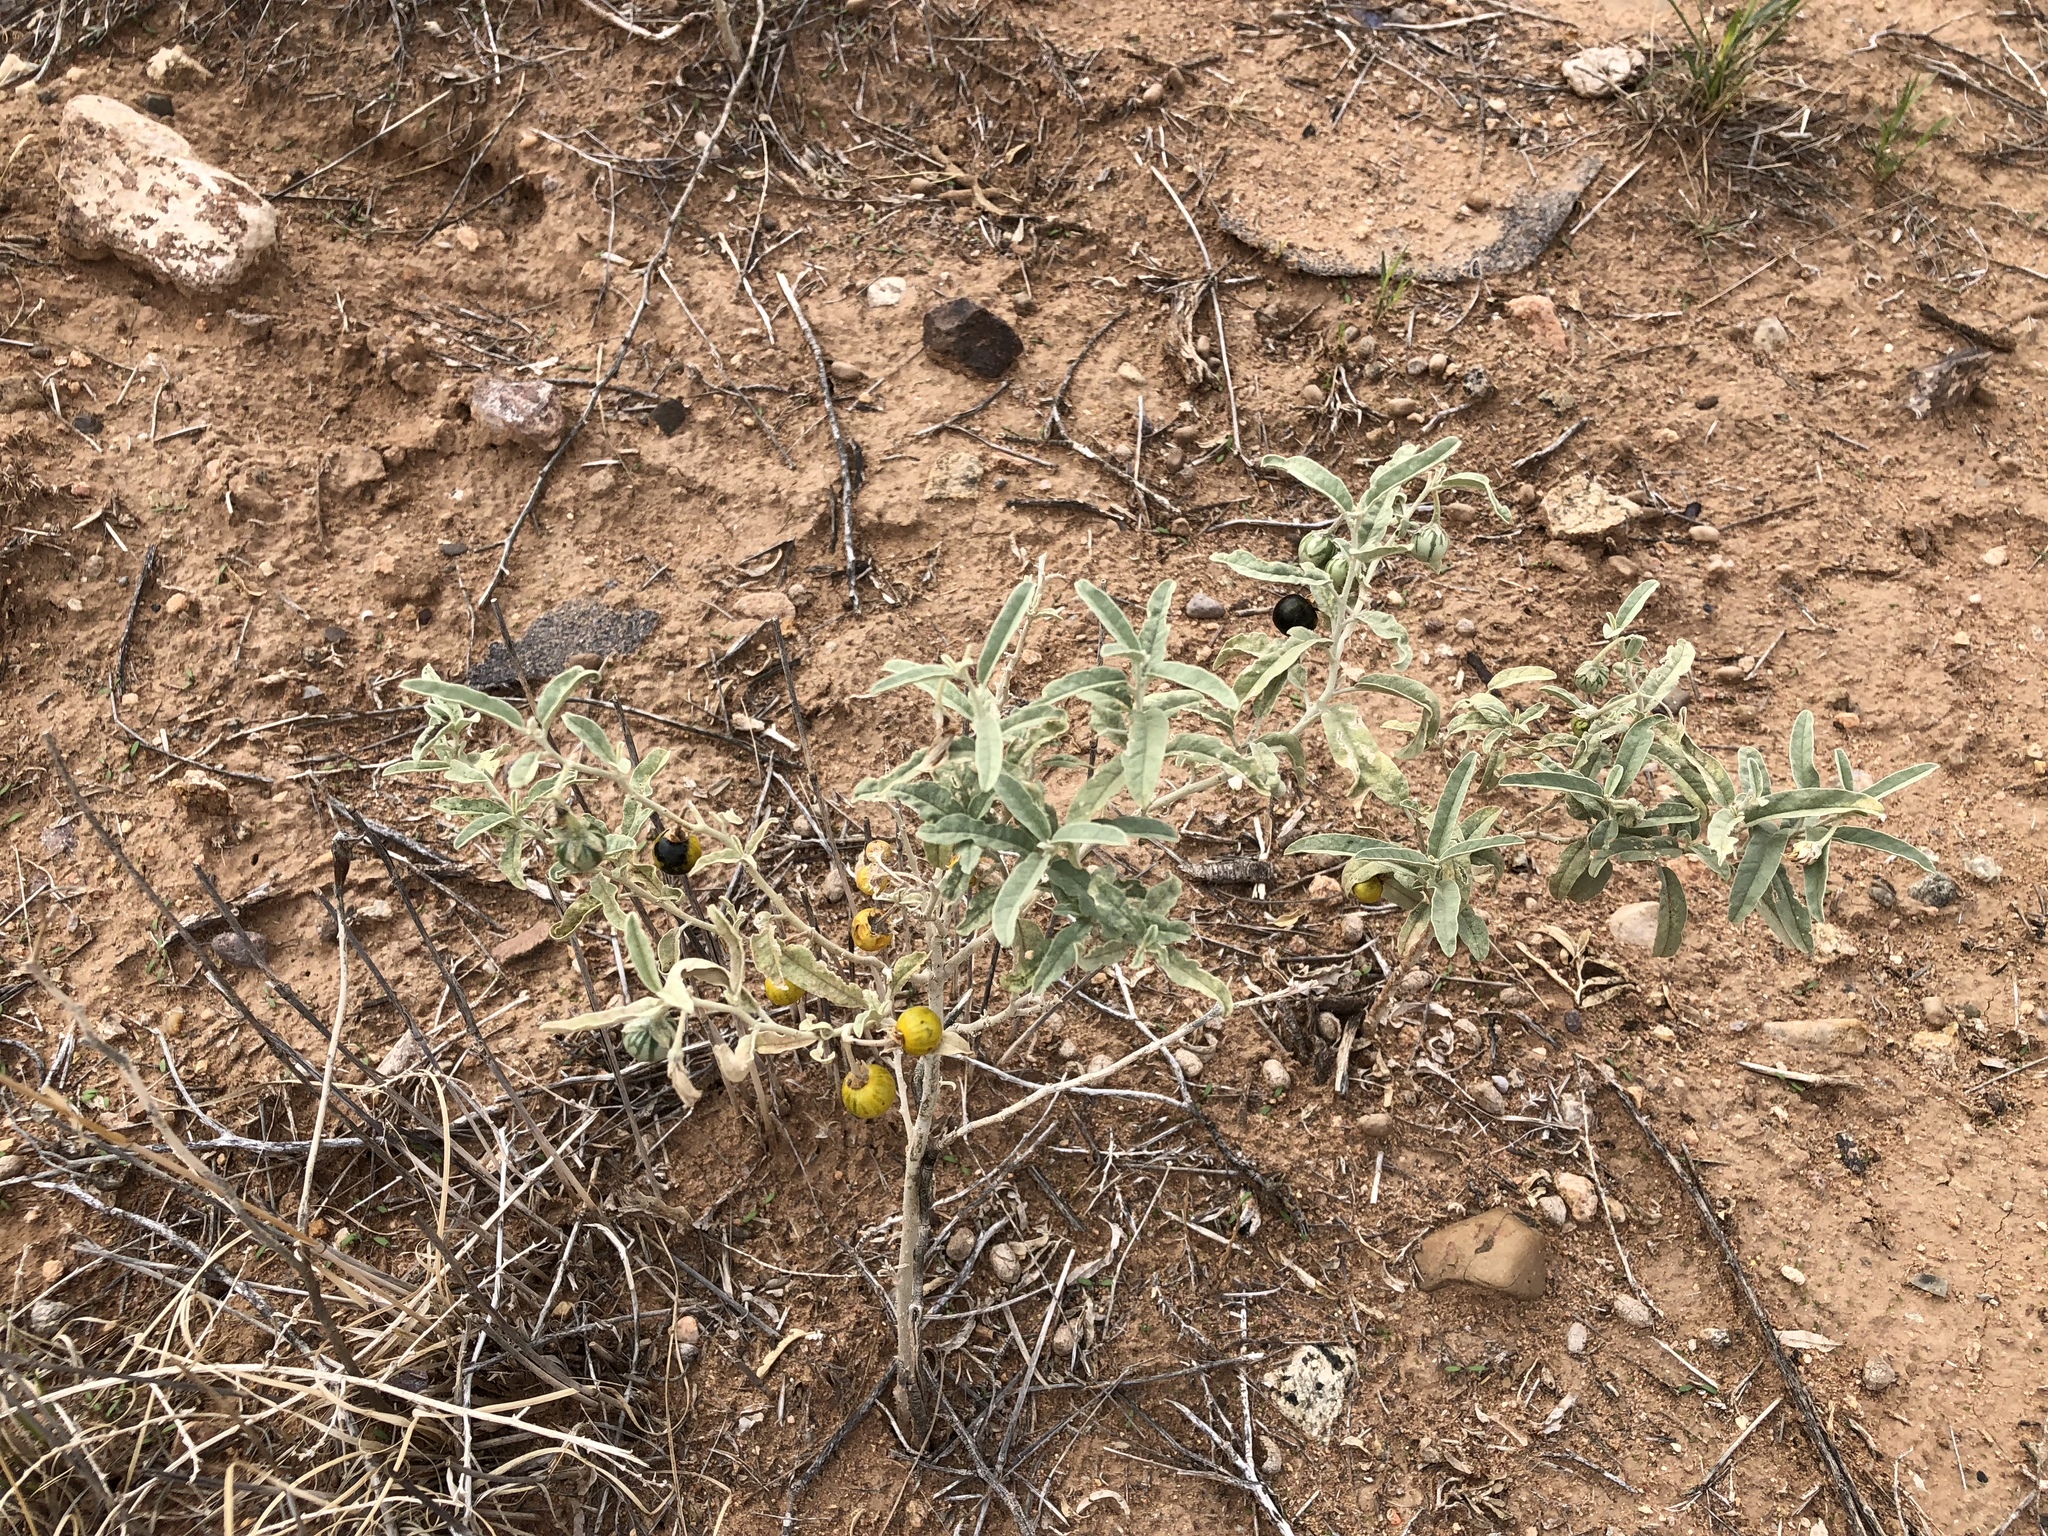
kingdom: Plantae
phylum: Tracheophyta
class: Magnoliopsida
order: Solanales
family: Solanaceae
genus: Solanum
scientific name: Solanum elaeagnifolium
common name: Silverleaf nightshade
